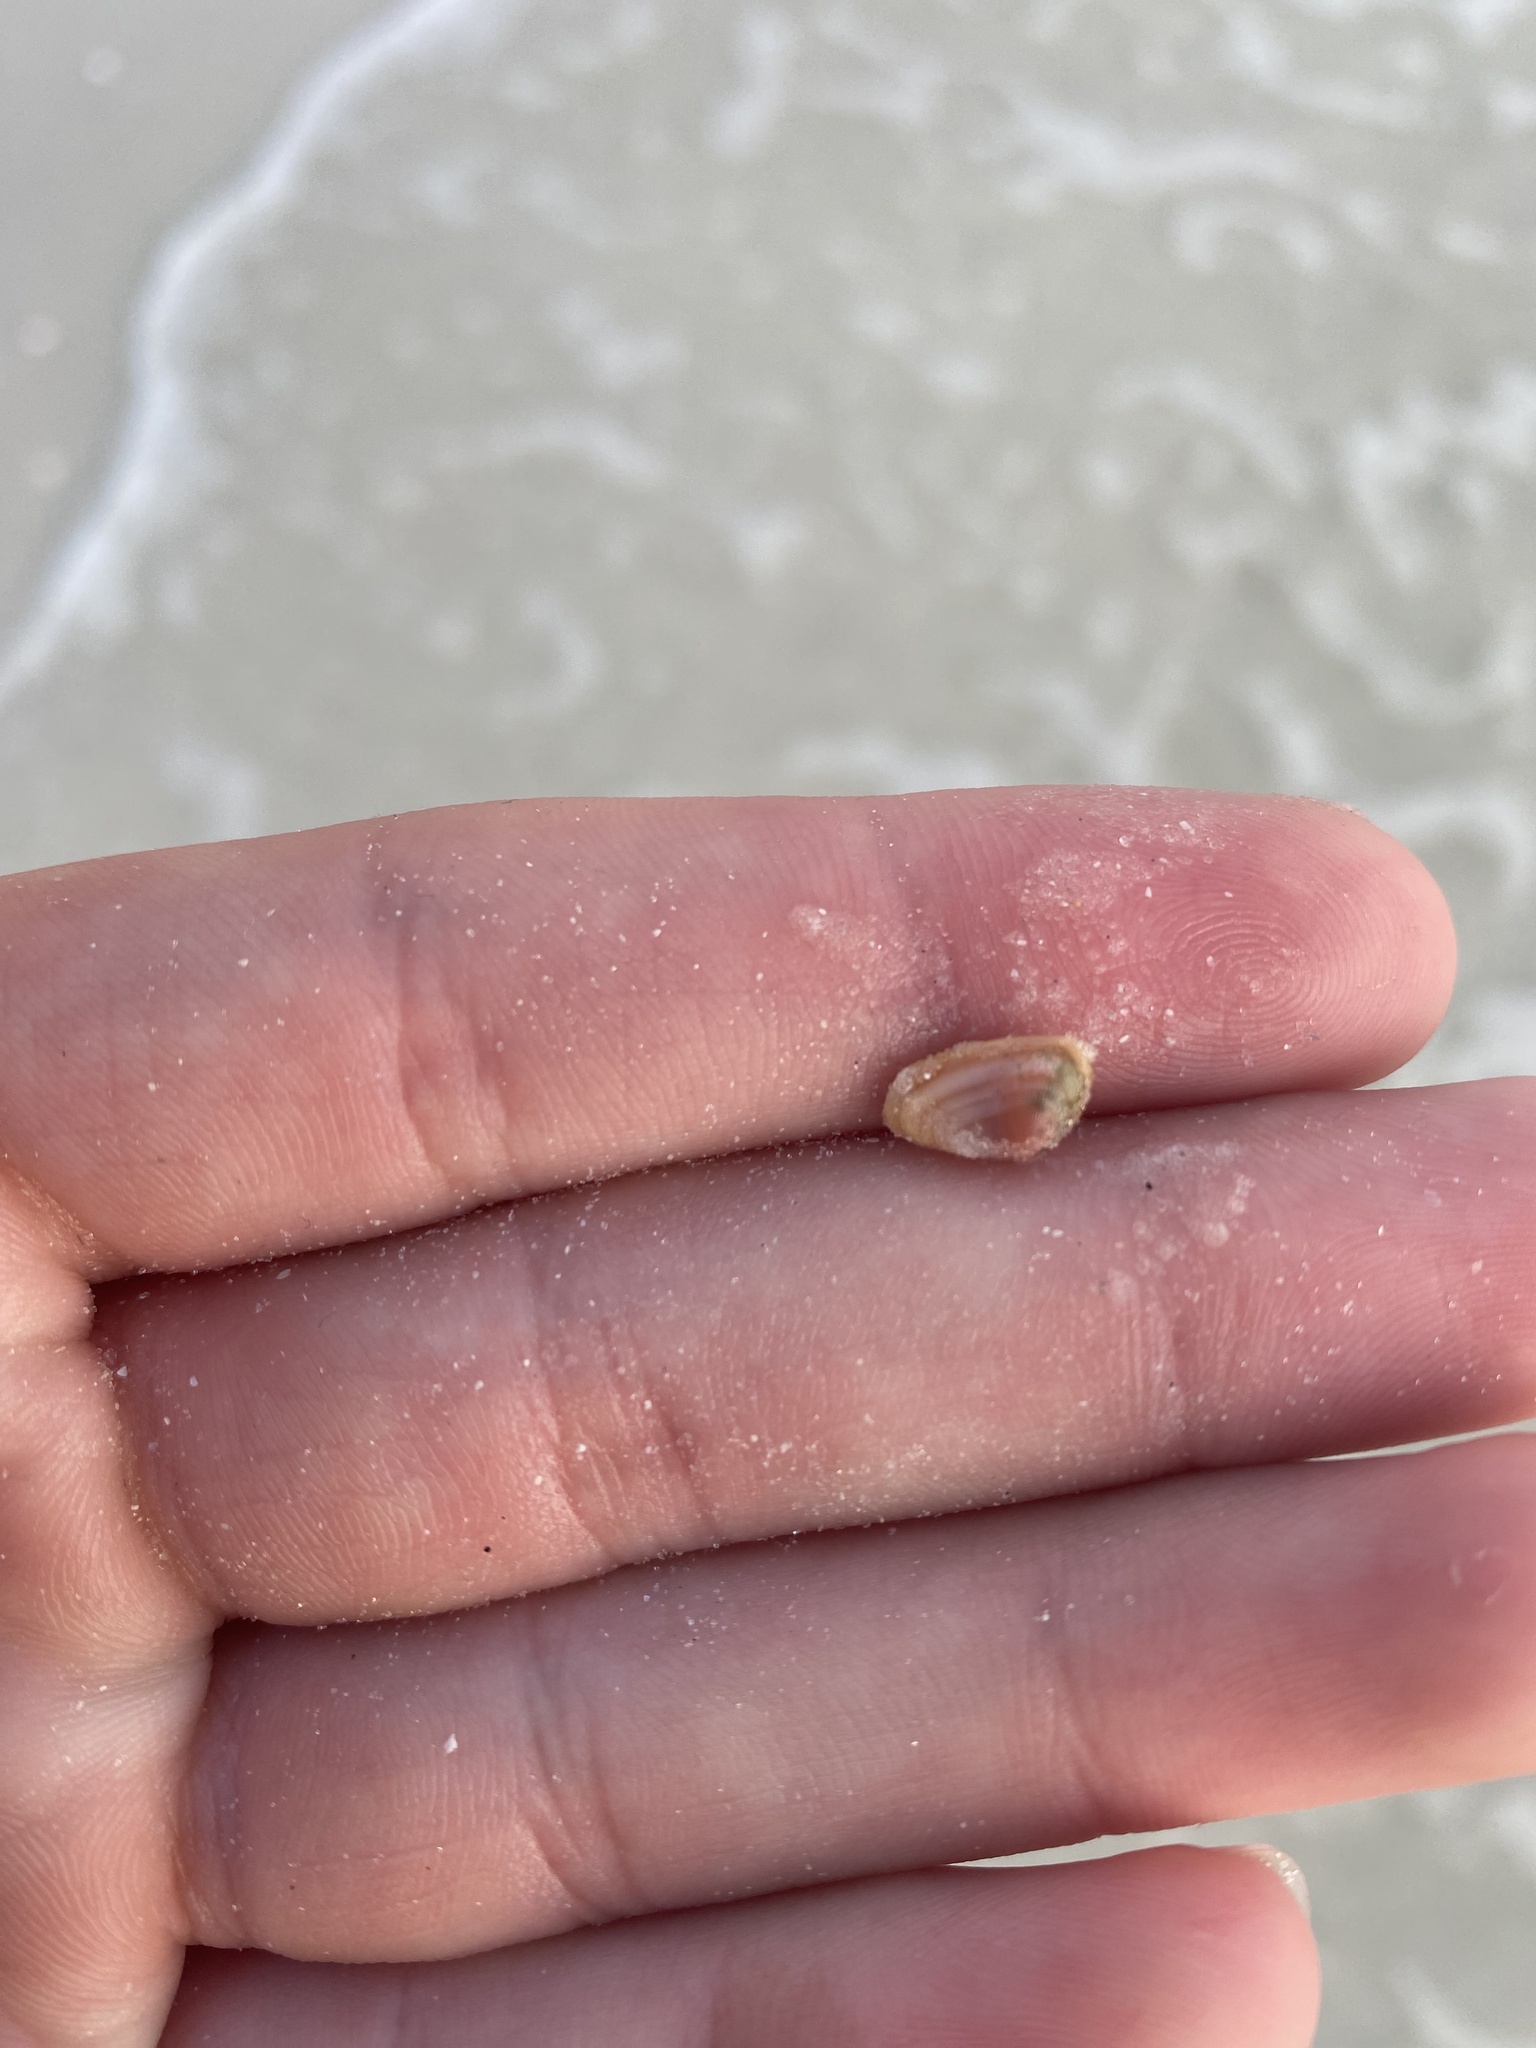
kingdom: Animalia
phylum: Mollusca
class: Bivalvia
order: Cardiida
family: Donacidae
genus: Donax
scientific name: Donax variabilis
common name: Butterfly shell
